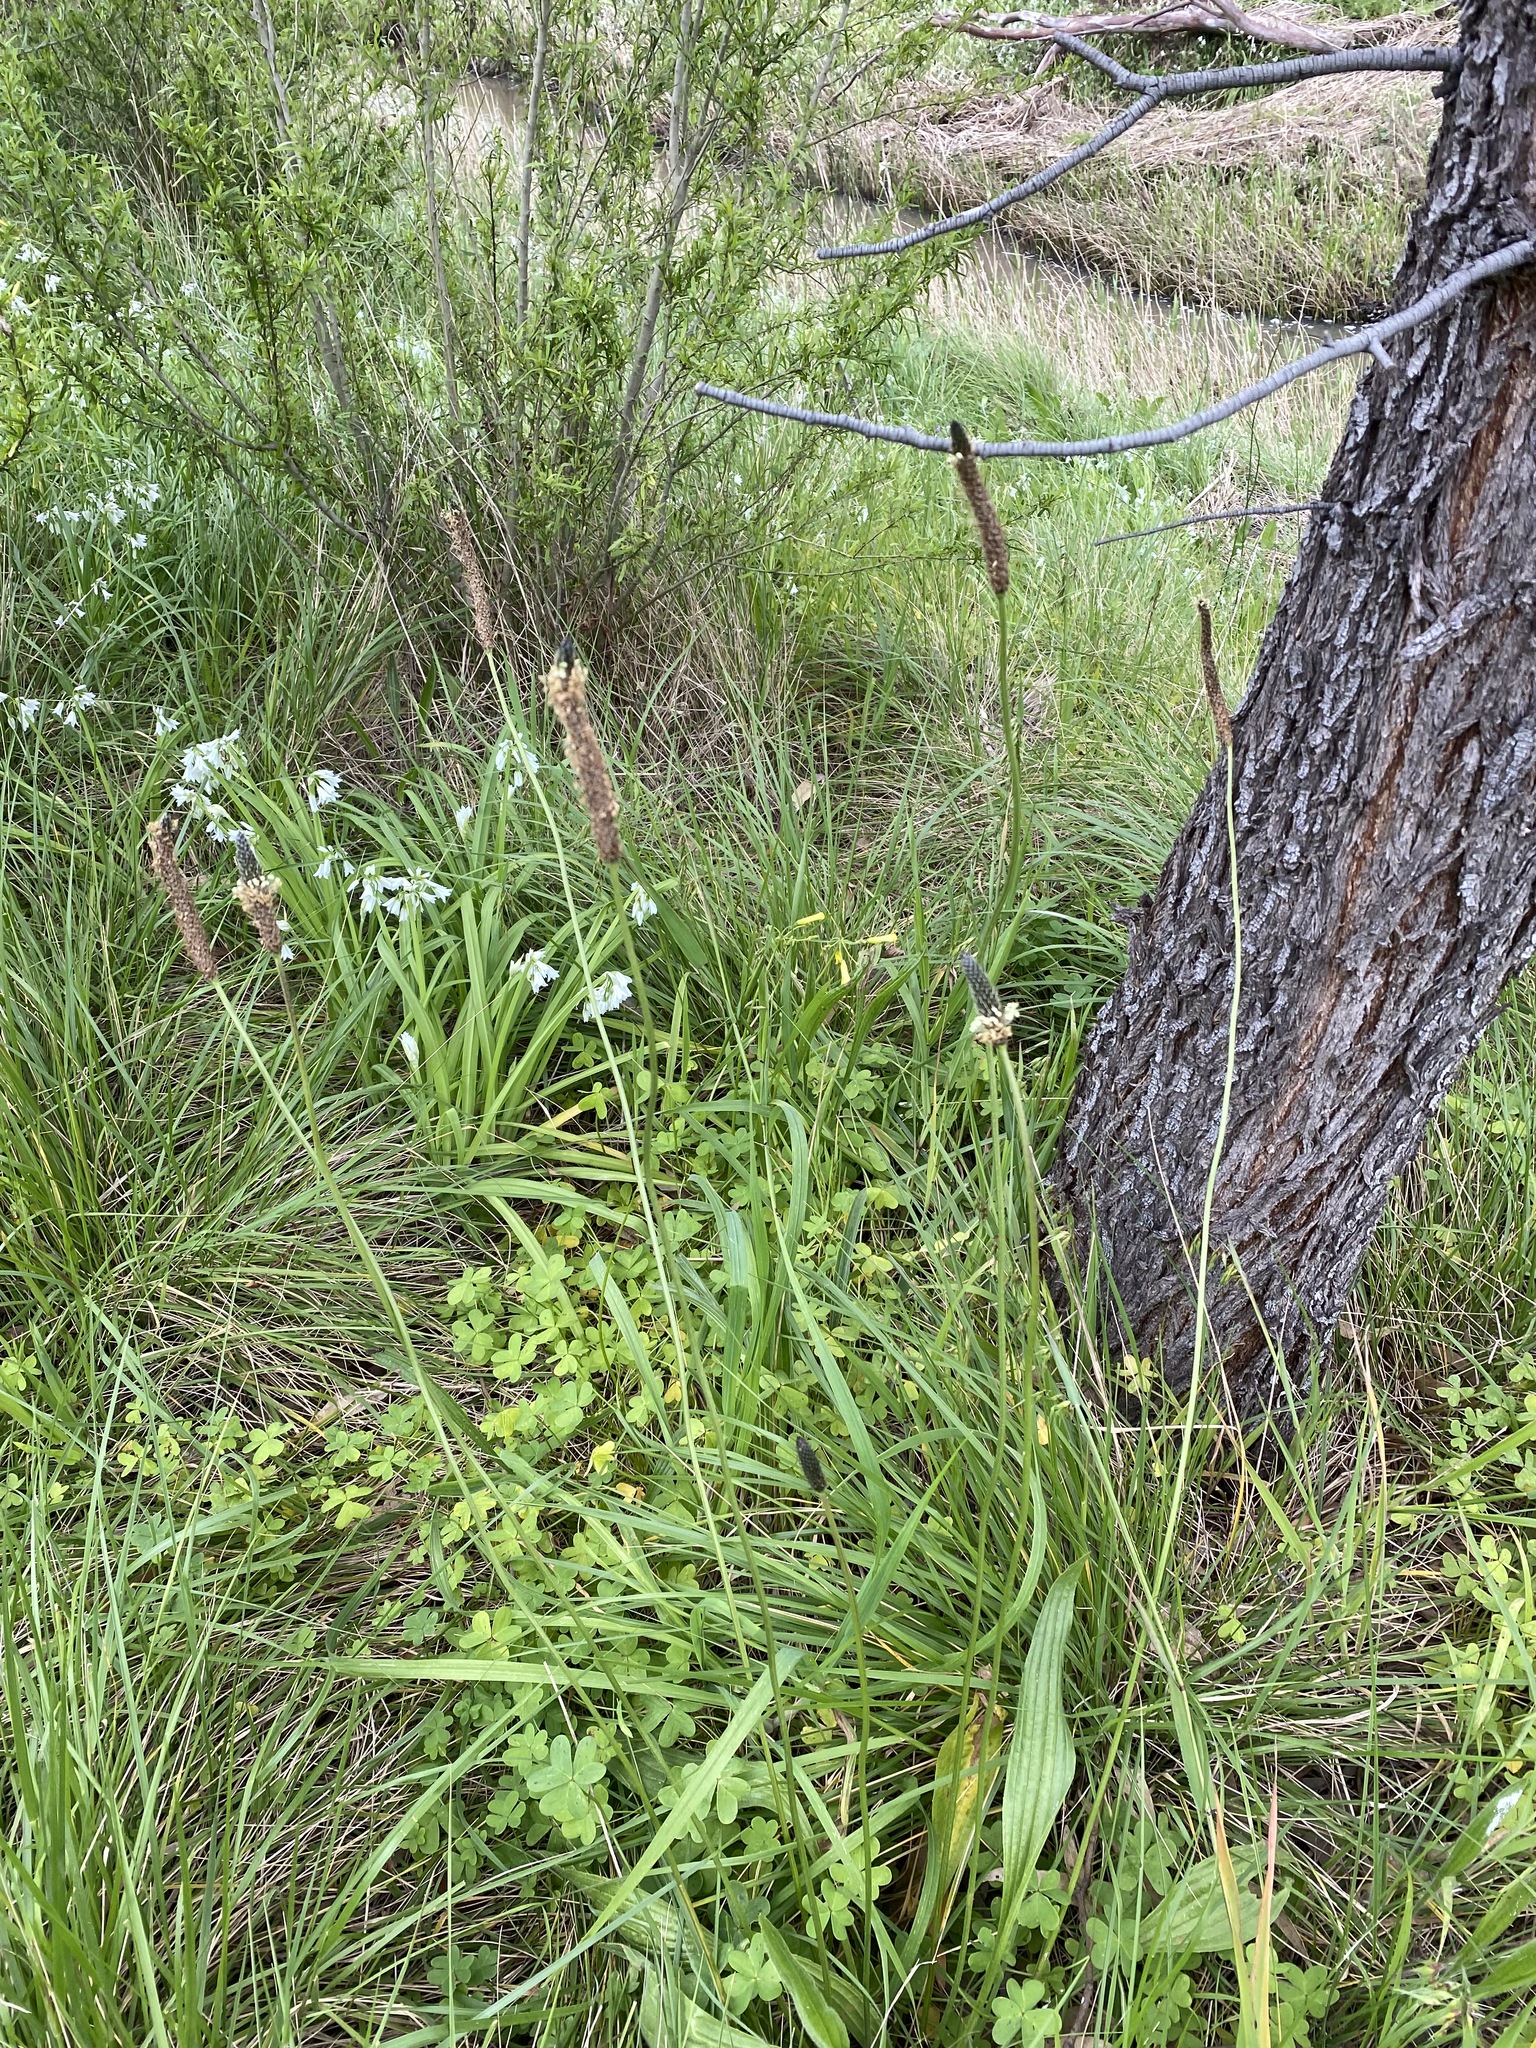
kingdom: Plantae
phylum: Tracheophyta
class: Magnoliopsida
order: Lamiales
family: Plantaginaceae
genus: Plantago
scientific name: Plantago lanceolata
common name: Ribwort plantain
